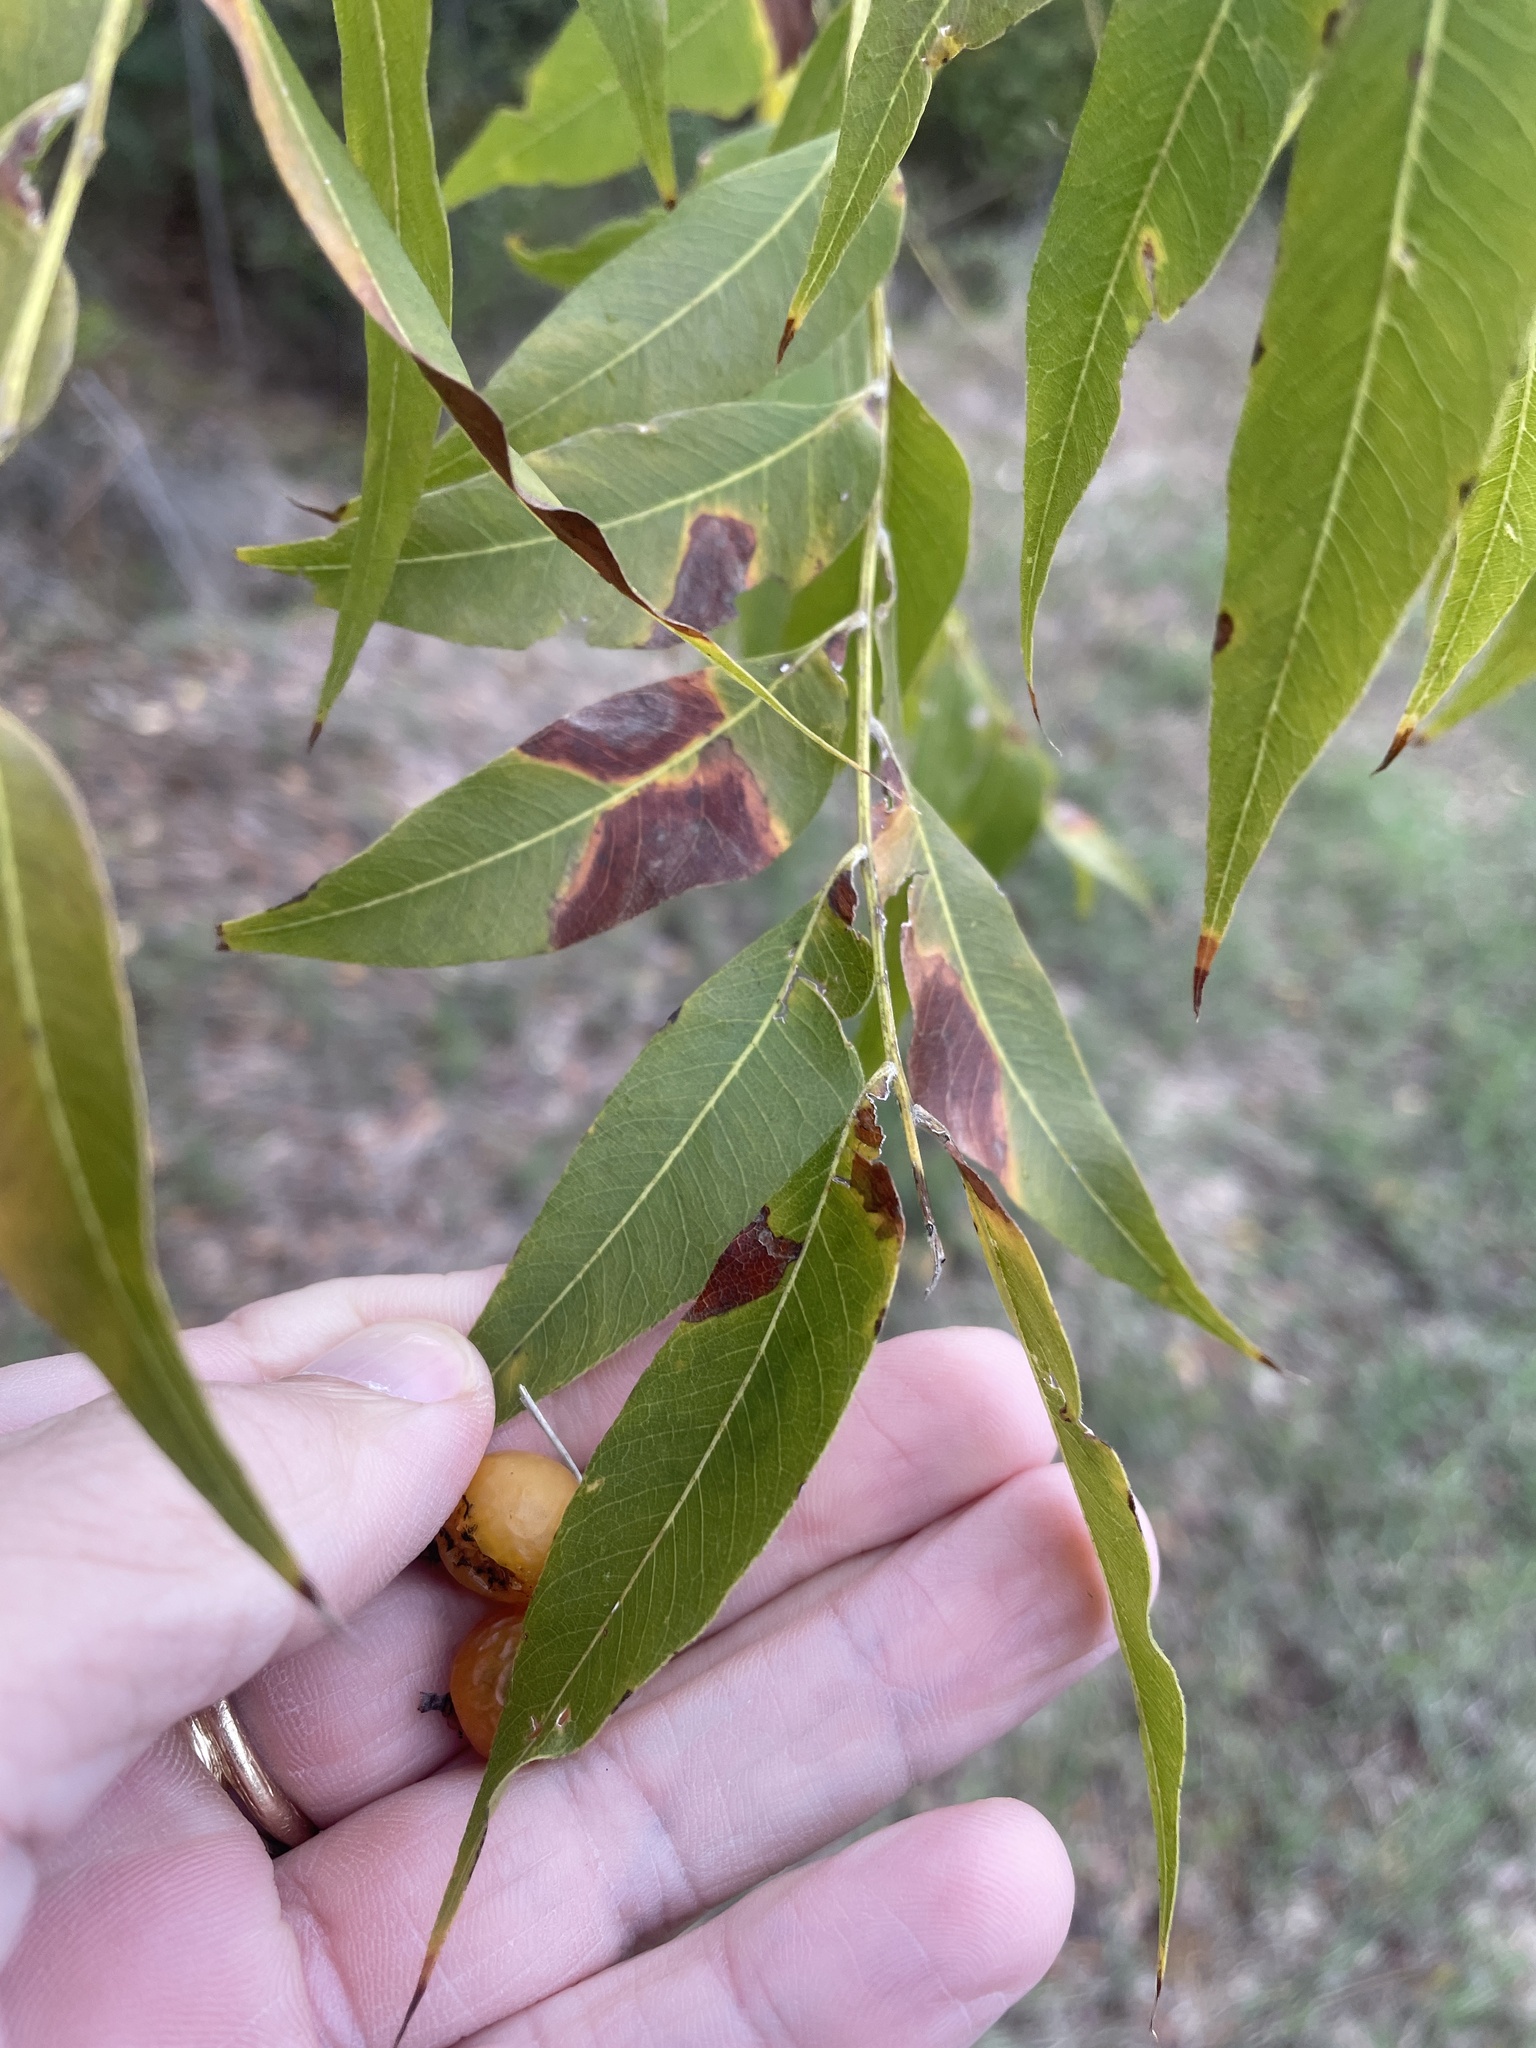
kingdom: Plantae
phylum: Tracheophyta
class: Magnoliopsida
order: Sapindales
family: Sapindaceae
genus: Sapindus
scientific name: Sapindus drummondii
